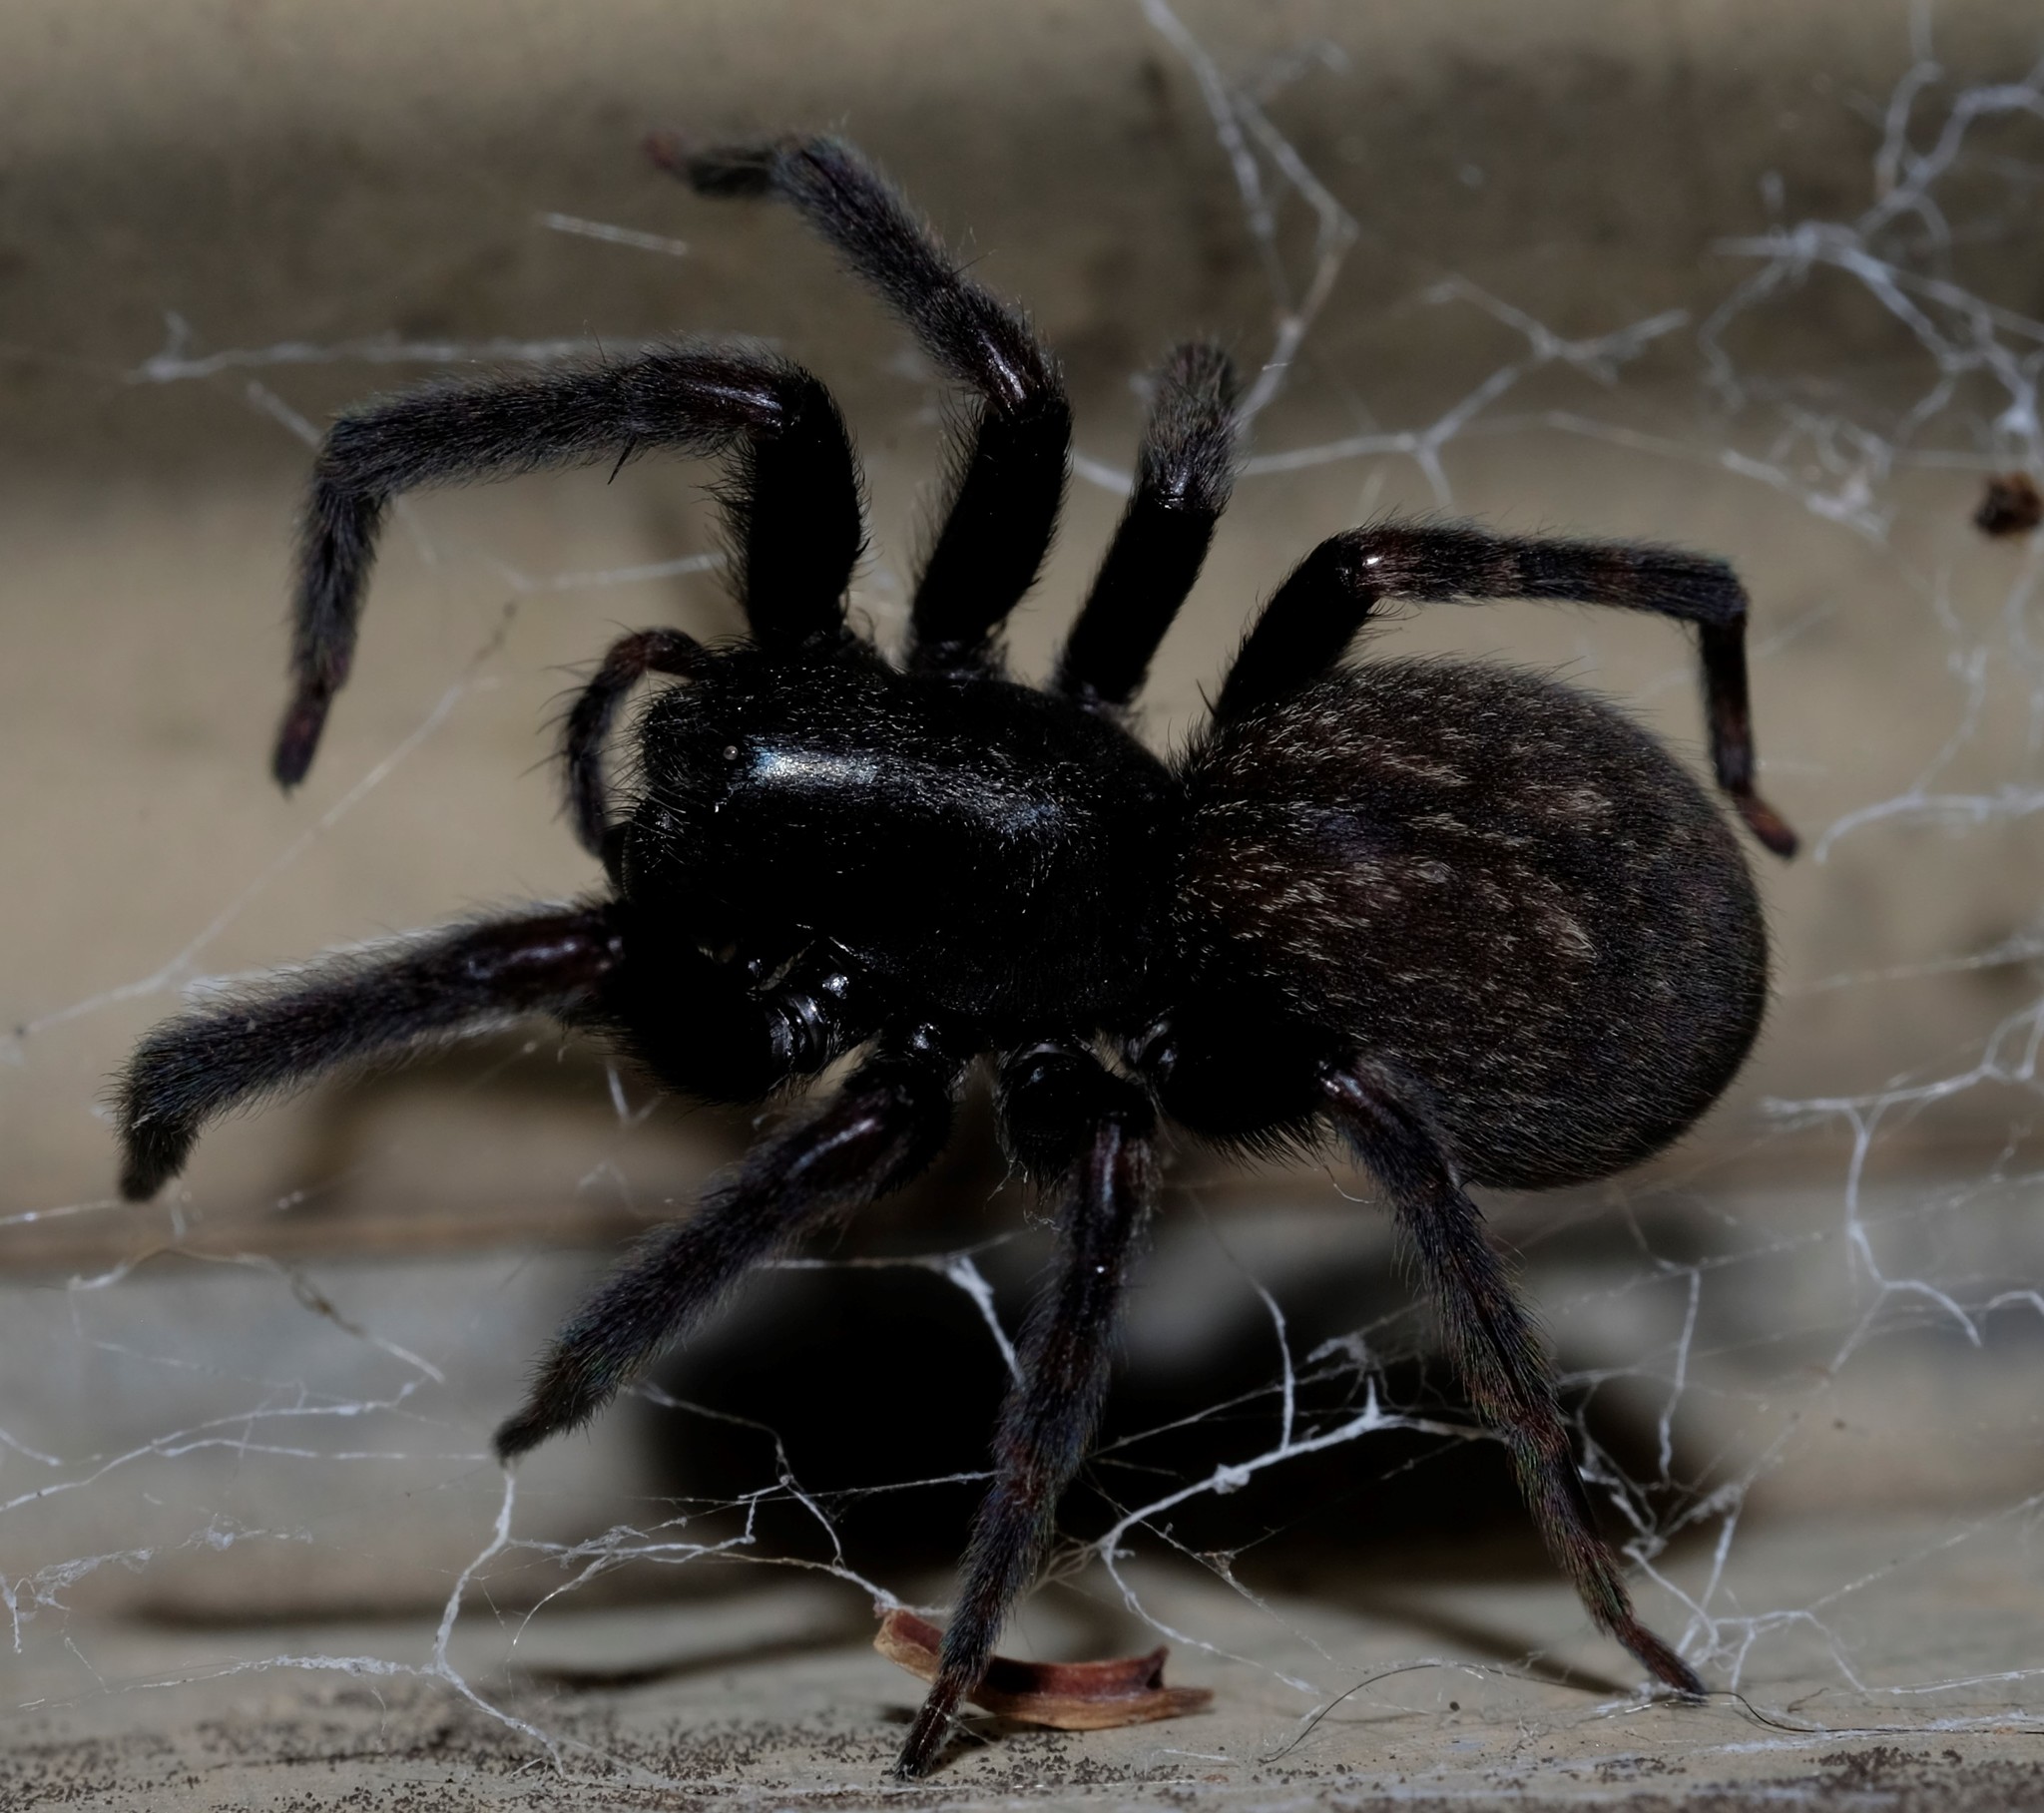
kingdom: Animalia
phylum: Arthropoda
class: Arachnida
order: Araneae
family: Desidae
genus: Badumna
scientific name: Badumna insignis
